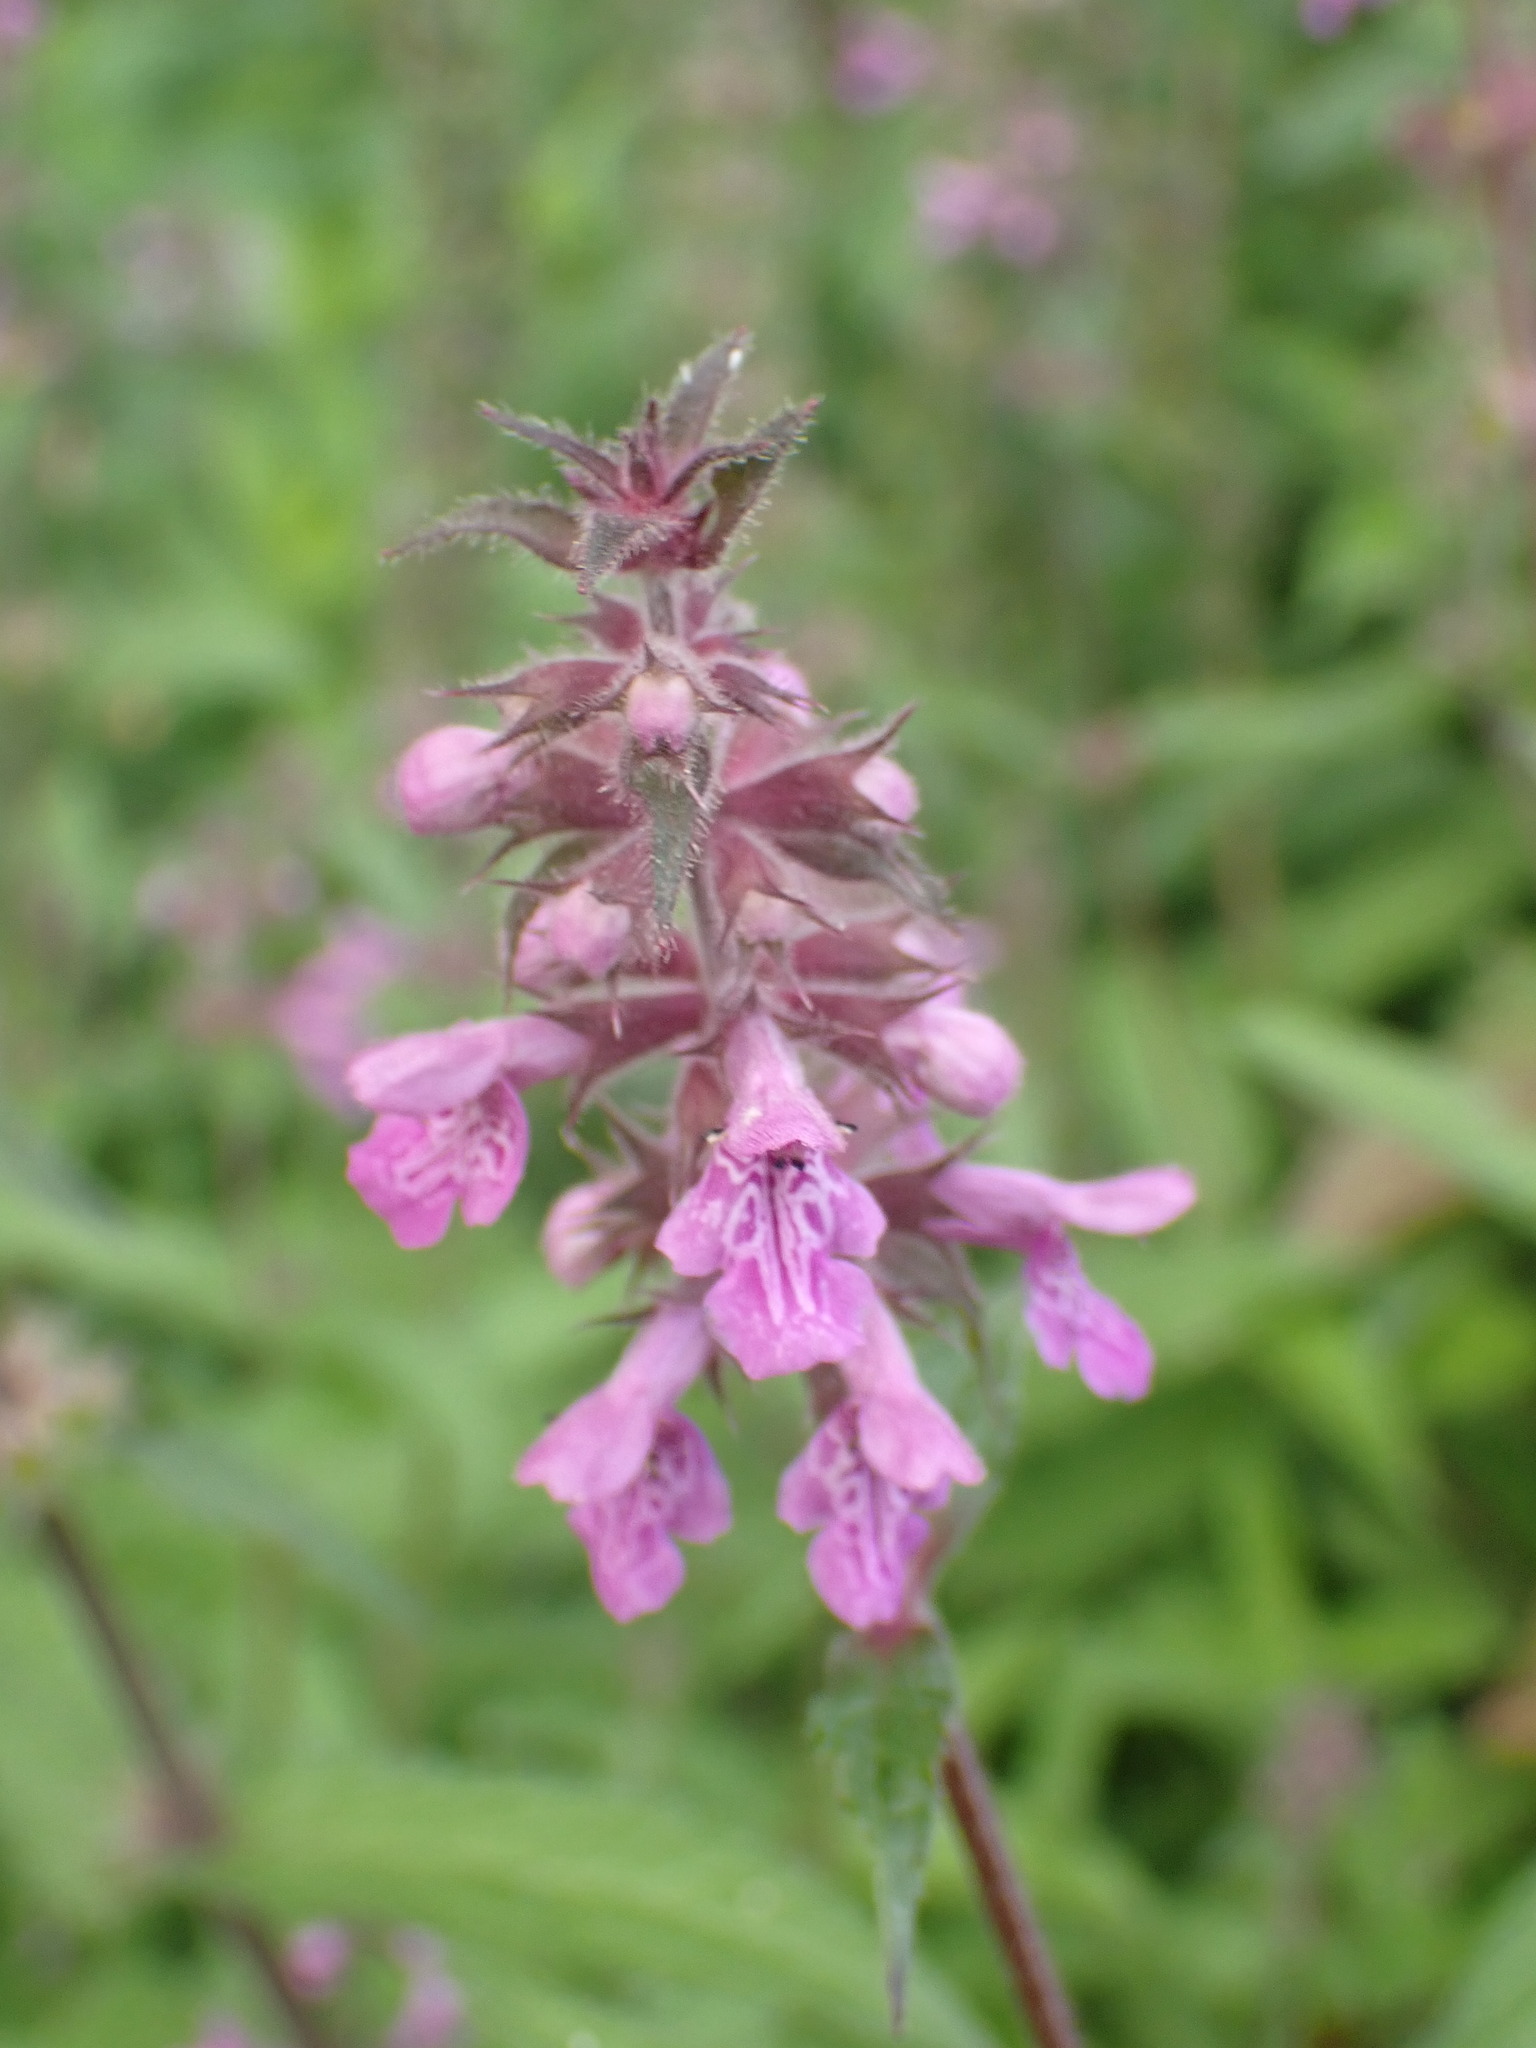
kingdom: Plantae
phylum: Tracheophyta
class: Magnoliopsida
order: Lamiales
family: Lamiaceae
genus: Stachys
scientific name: Stachys palustris
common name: Marsh woundwort
